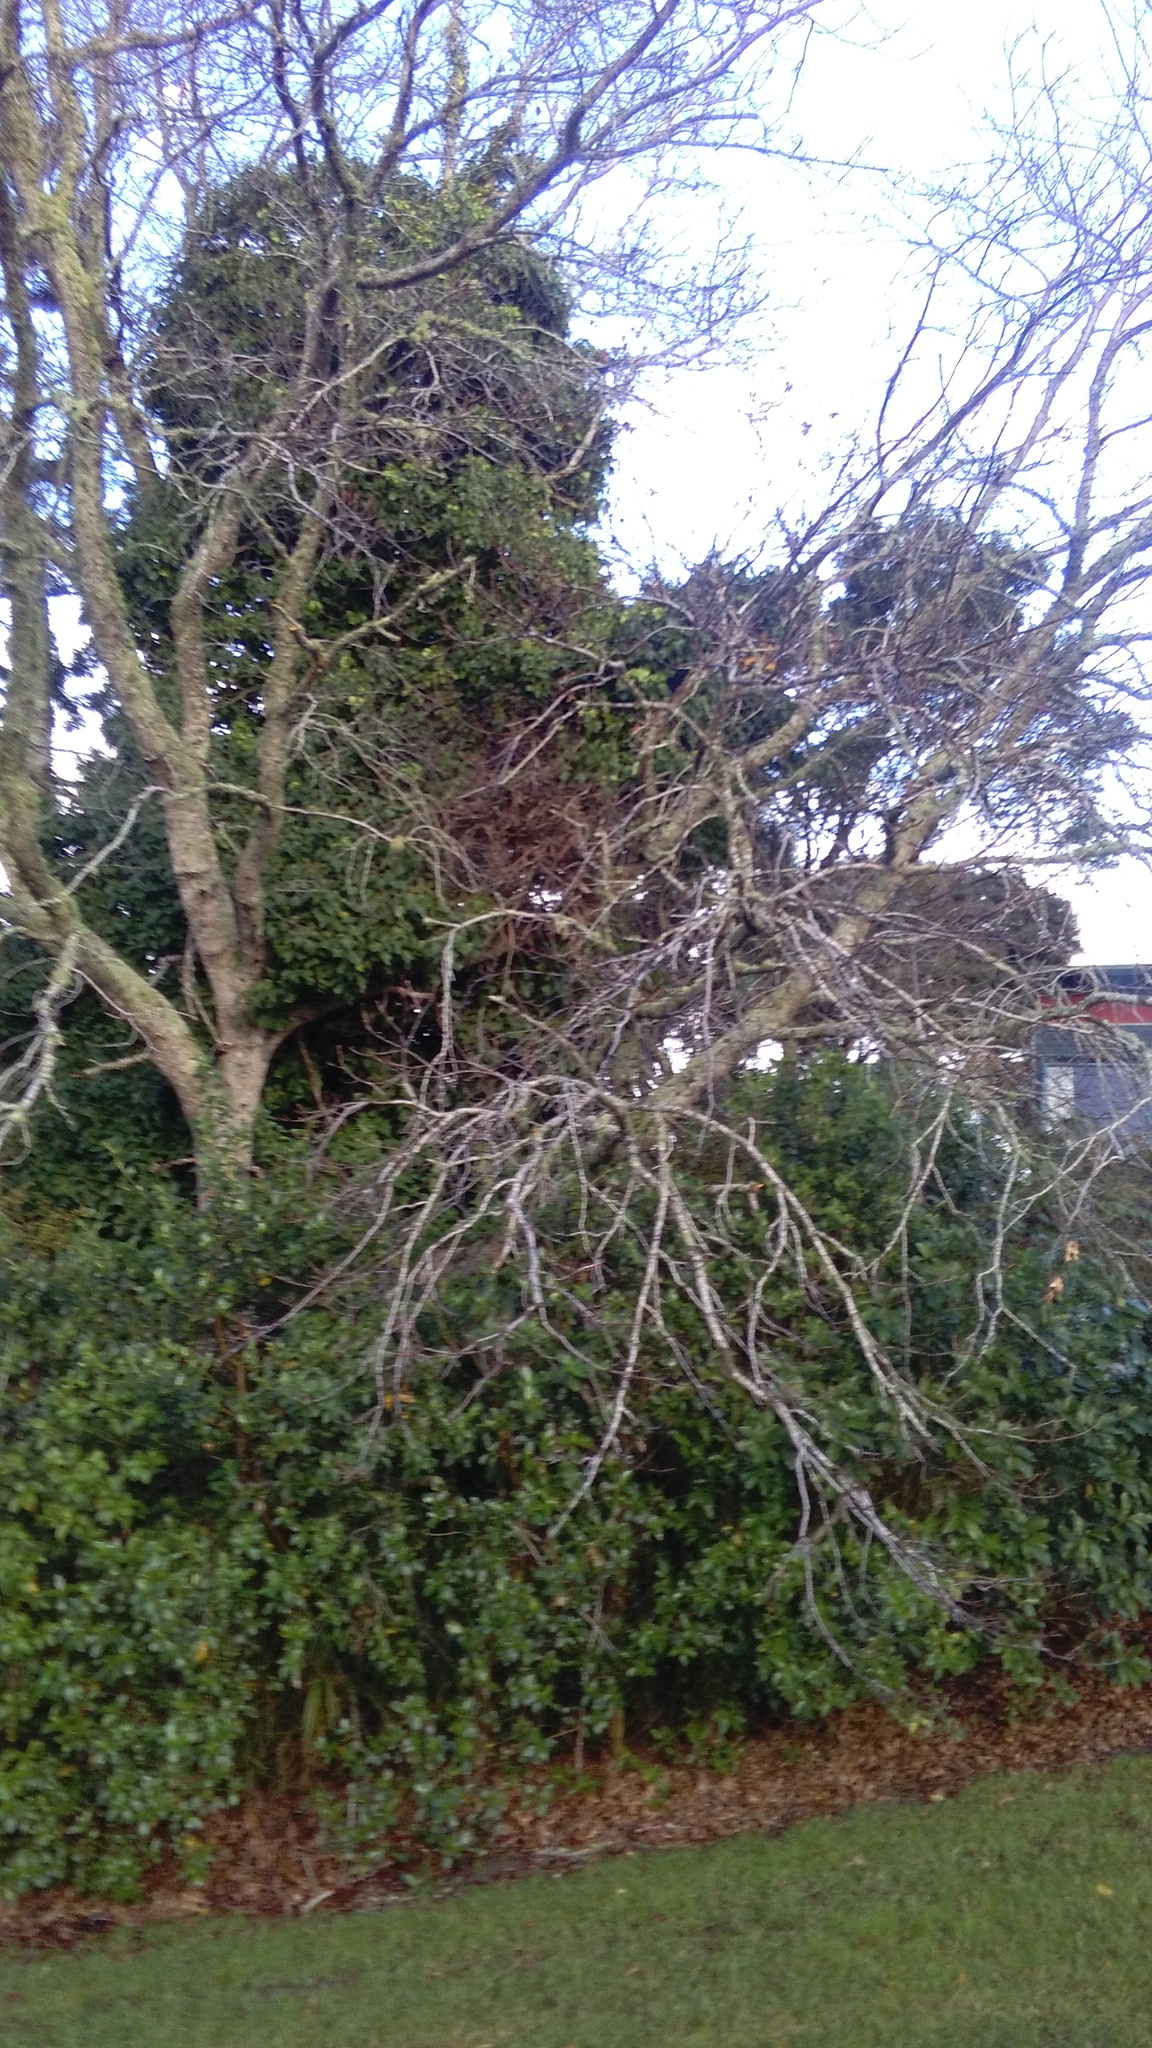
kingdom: Plantae
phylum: Tracheophyta
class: Magnoliopsida
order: Apiales
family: Araliaceae
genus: Hedera
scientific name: Hedera helix
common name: Ivy
